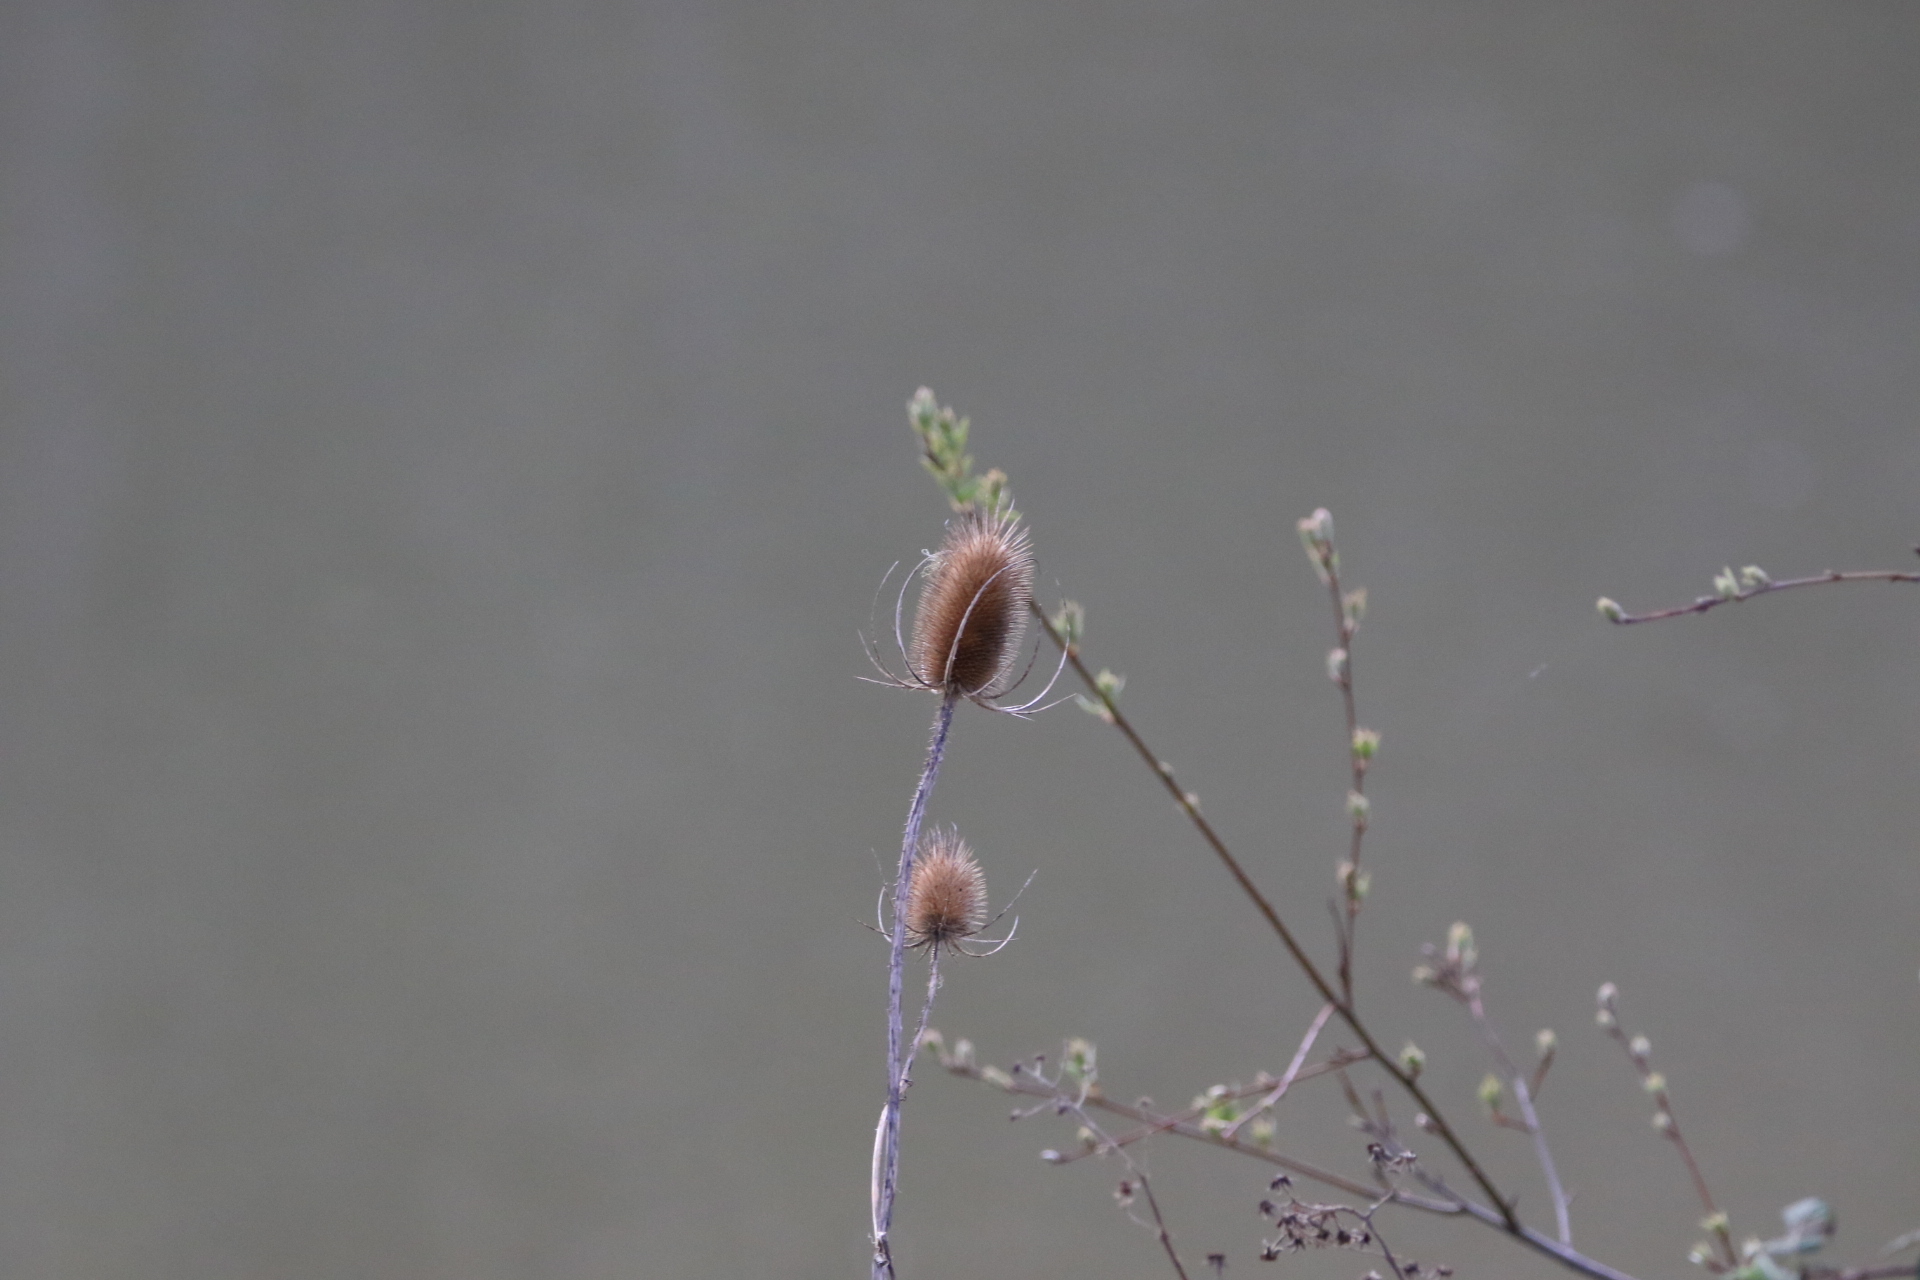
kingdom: Plantae
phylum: Tracheophyta
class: Magnoliopsida
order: Dipsacales
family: Caprifoliaceae
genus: Dipsacus
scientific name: Dipsacus fullonum
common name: Teasel
